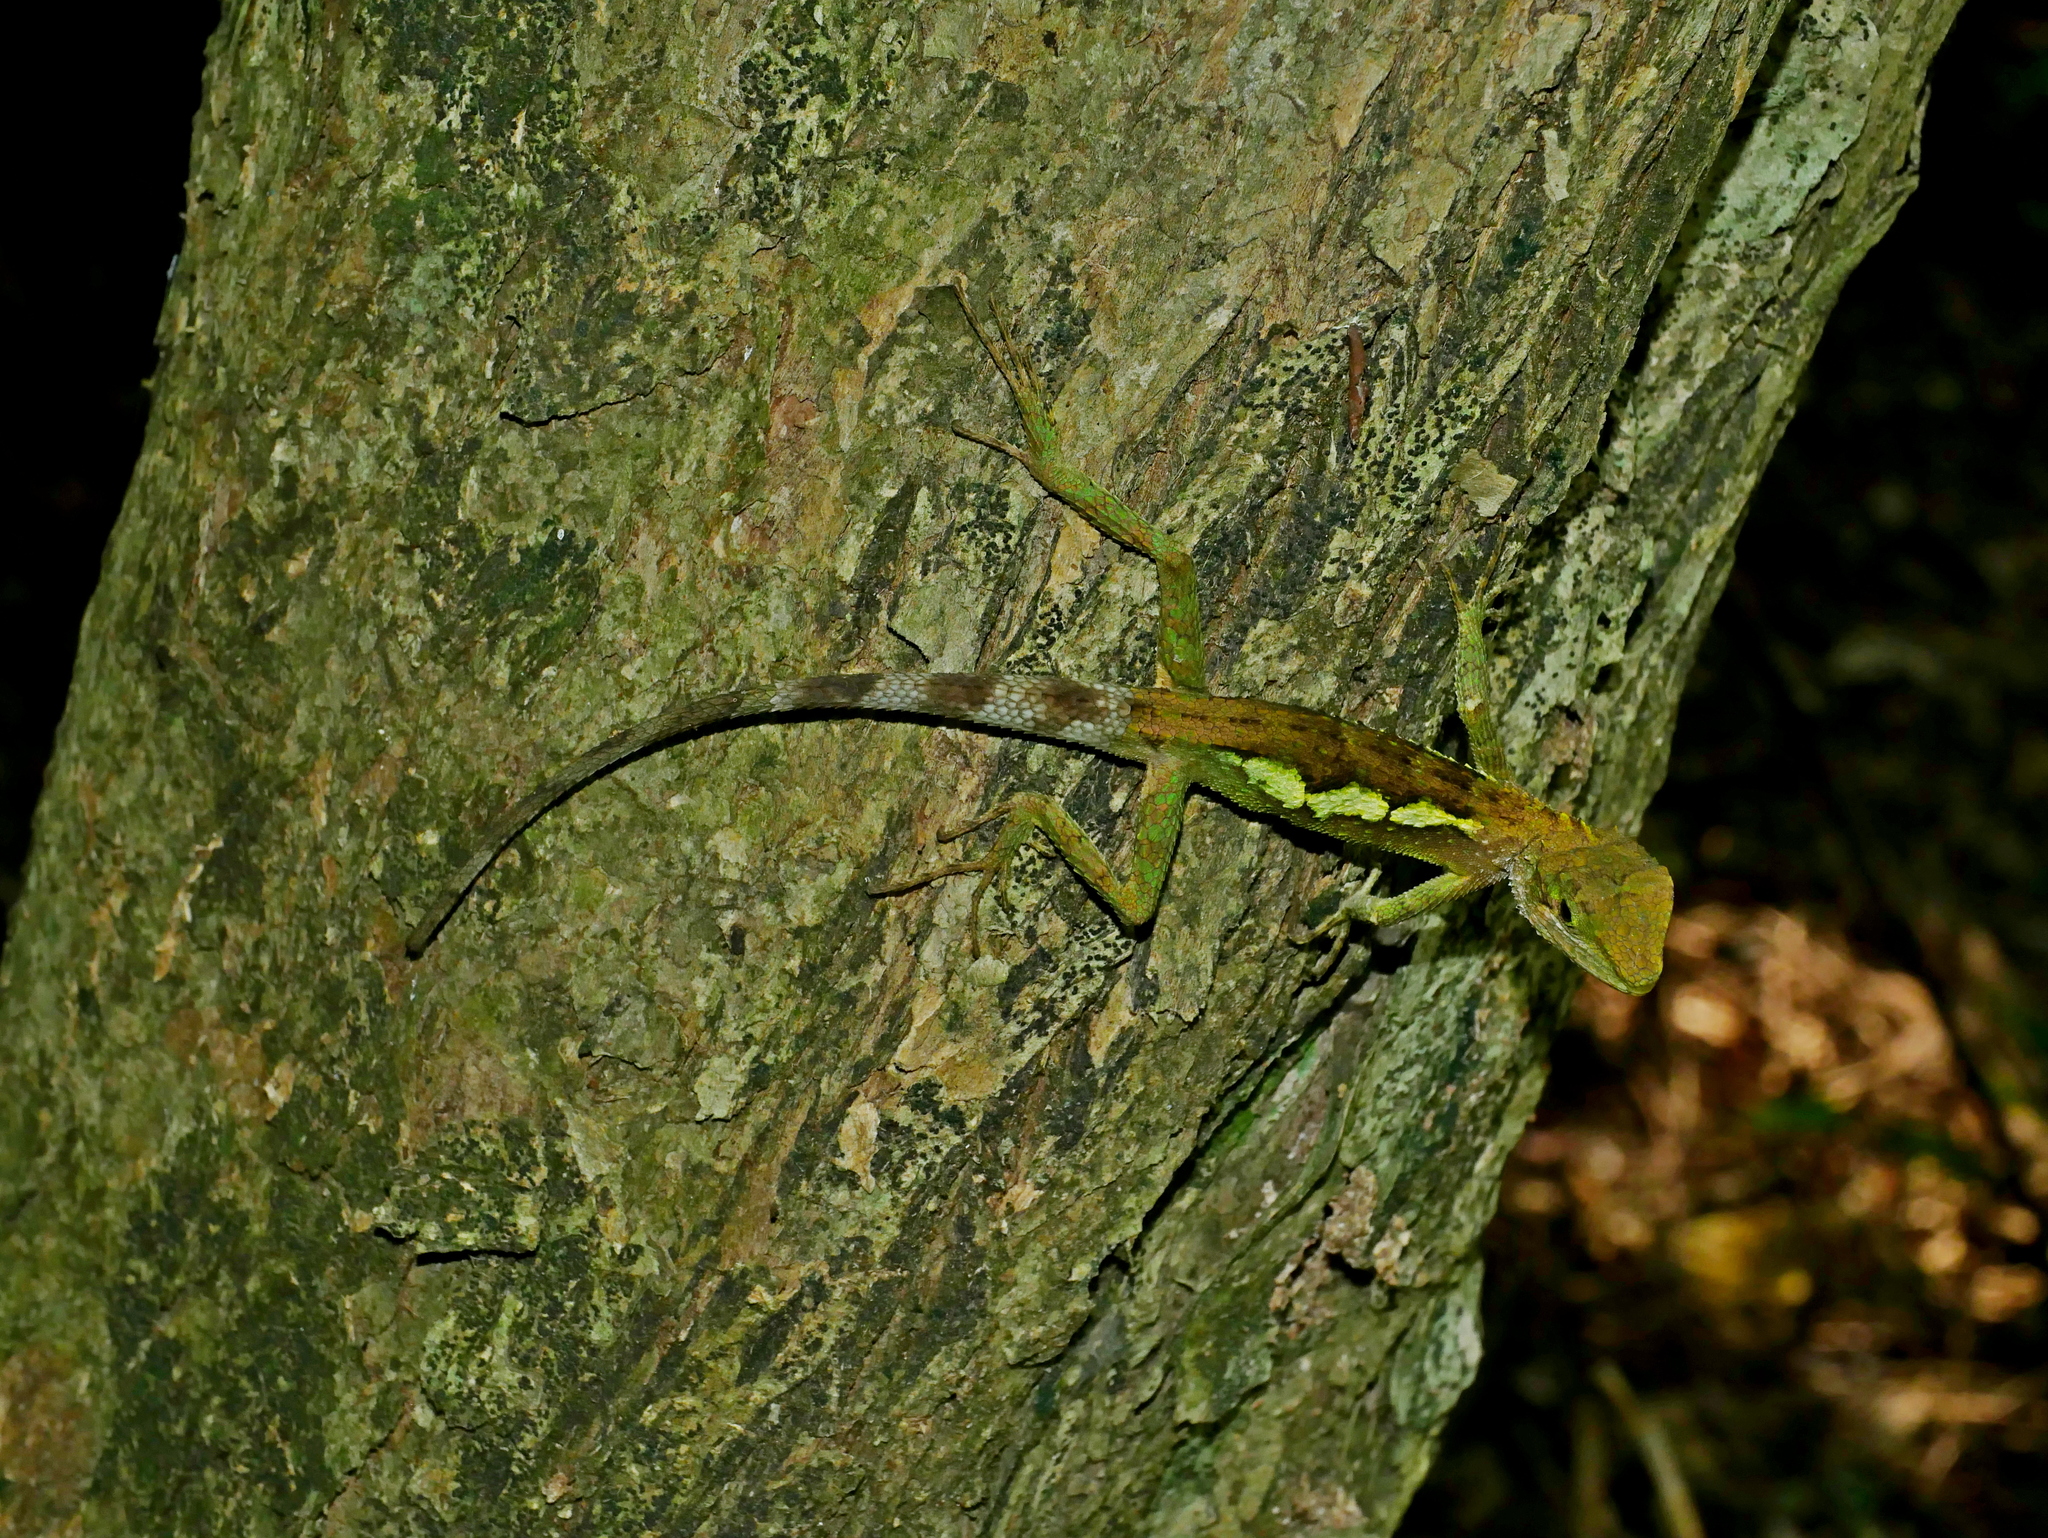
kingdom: Fungi
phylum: Basidiomycota
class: Agaricomycetes
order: Boletales
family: Diplocystidiaceae
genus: Diploderma
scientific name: Diploderma polygonatum
